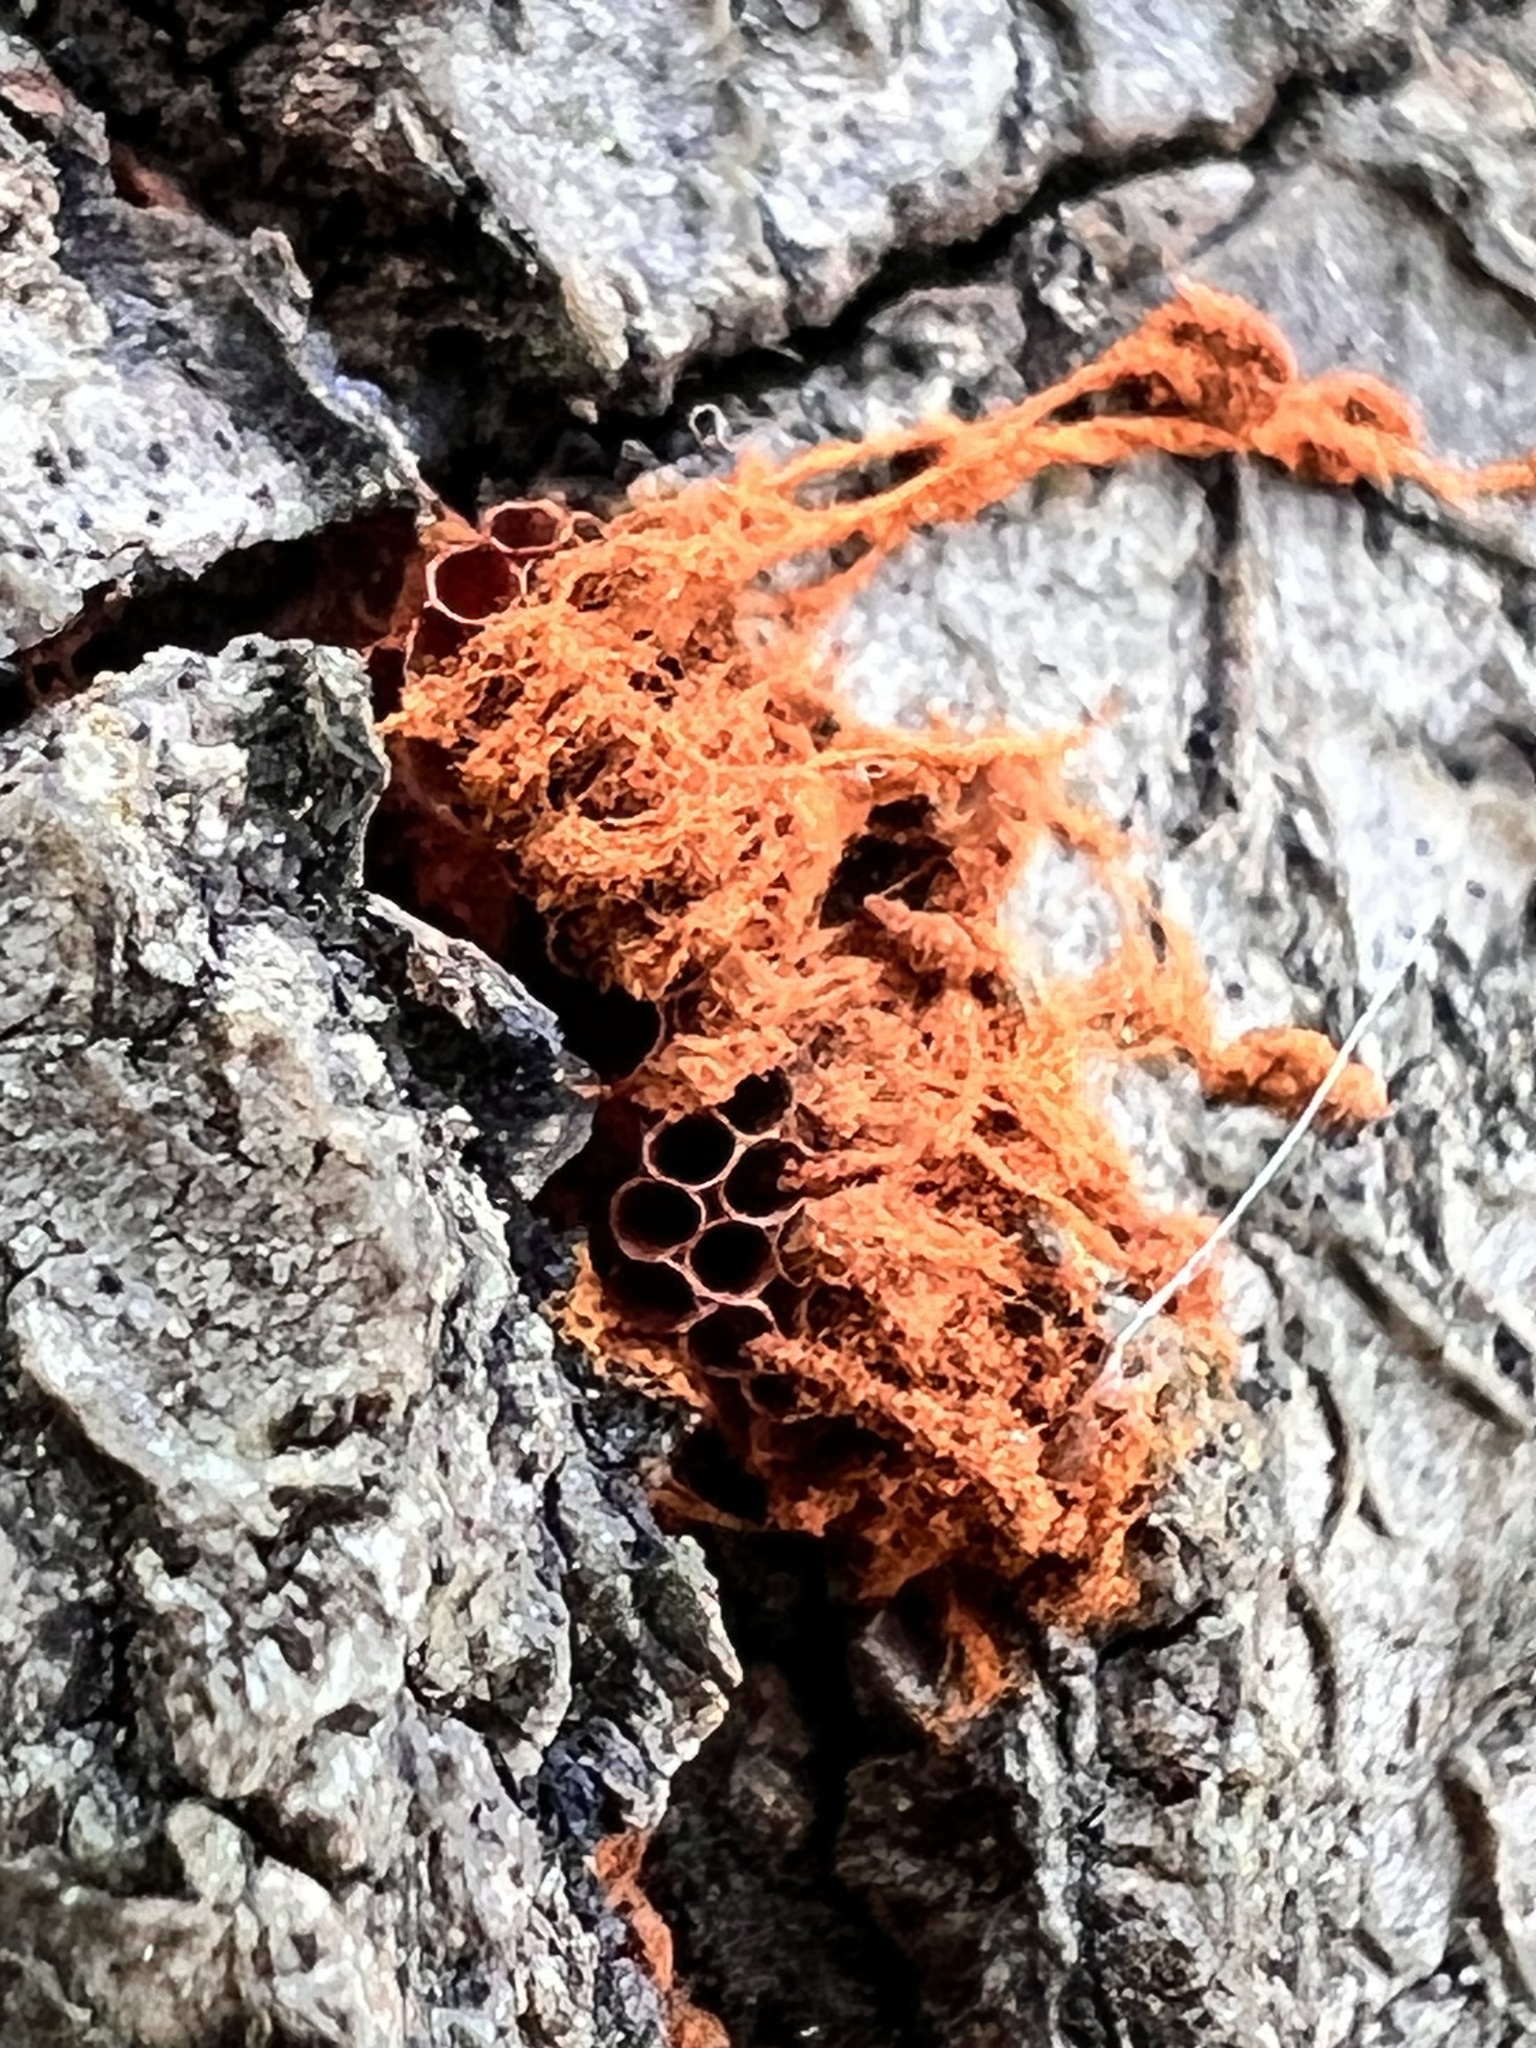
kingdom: Protozoa
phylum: Mycetozoa
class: Myxomycetes
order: Trichiales
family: Trichiaceae
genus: Metatrichia
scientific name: Metatrichia vesparia
